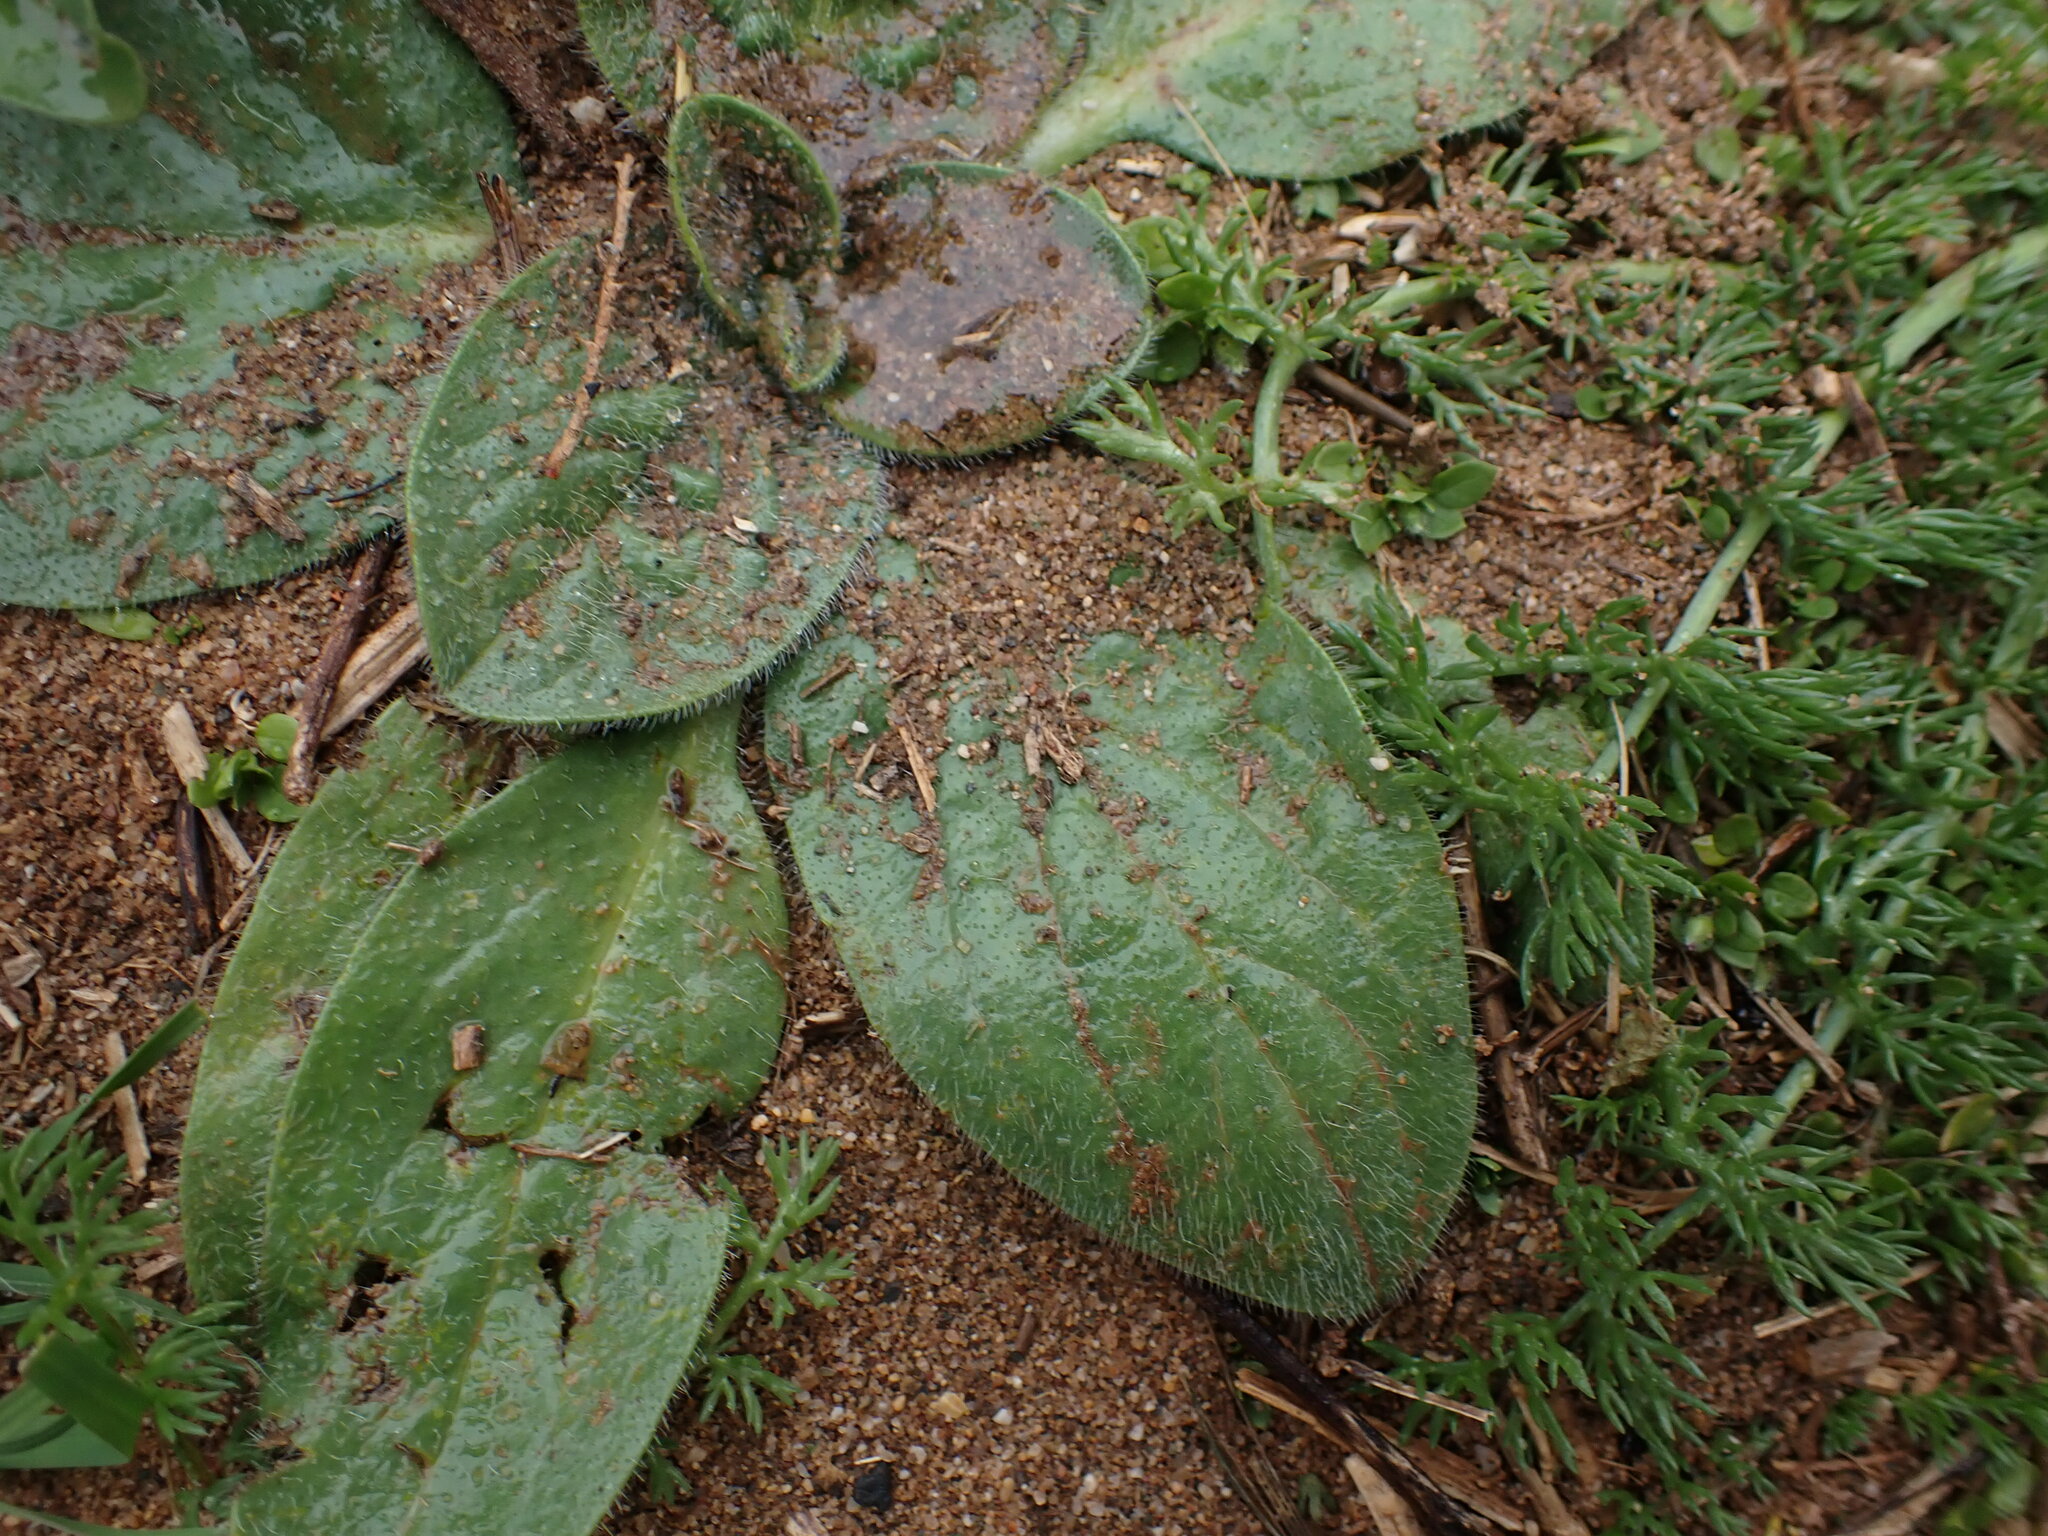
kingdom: Plantae
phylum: Tracheophyta
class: Magnoliopsida
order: Boraginales
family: Boraginaceae
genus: Echium
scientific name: Echium plantagineum
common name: Purple viper's-bugloss
